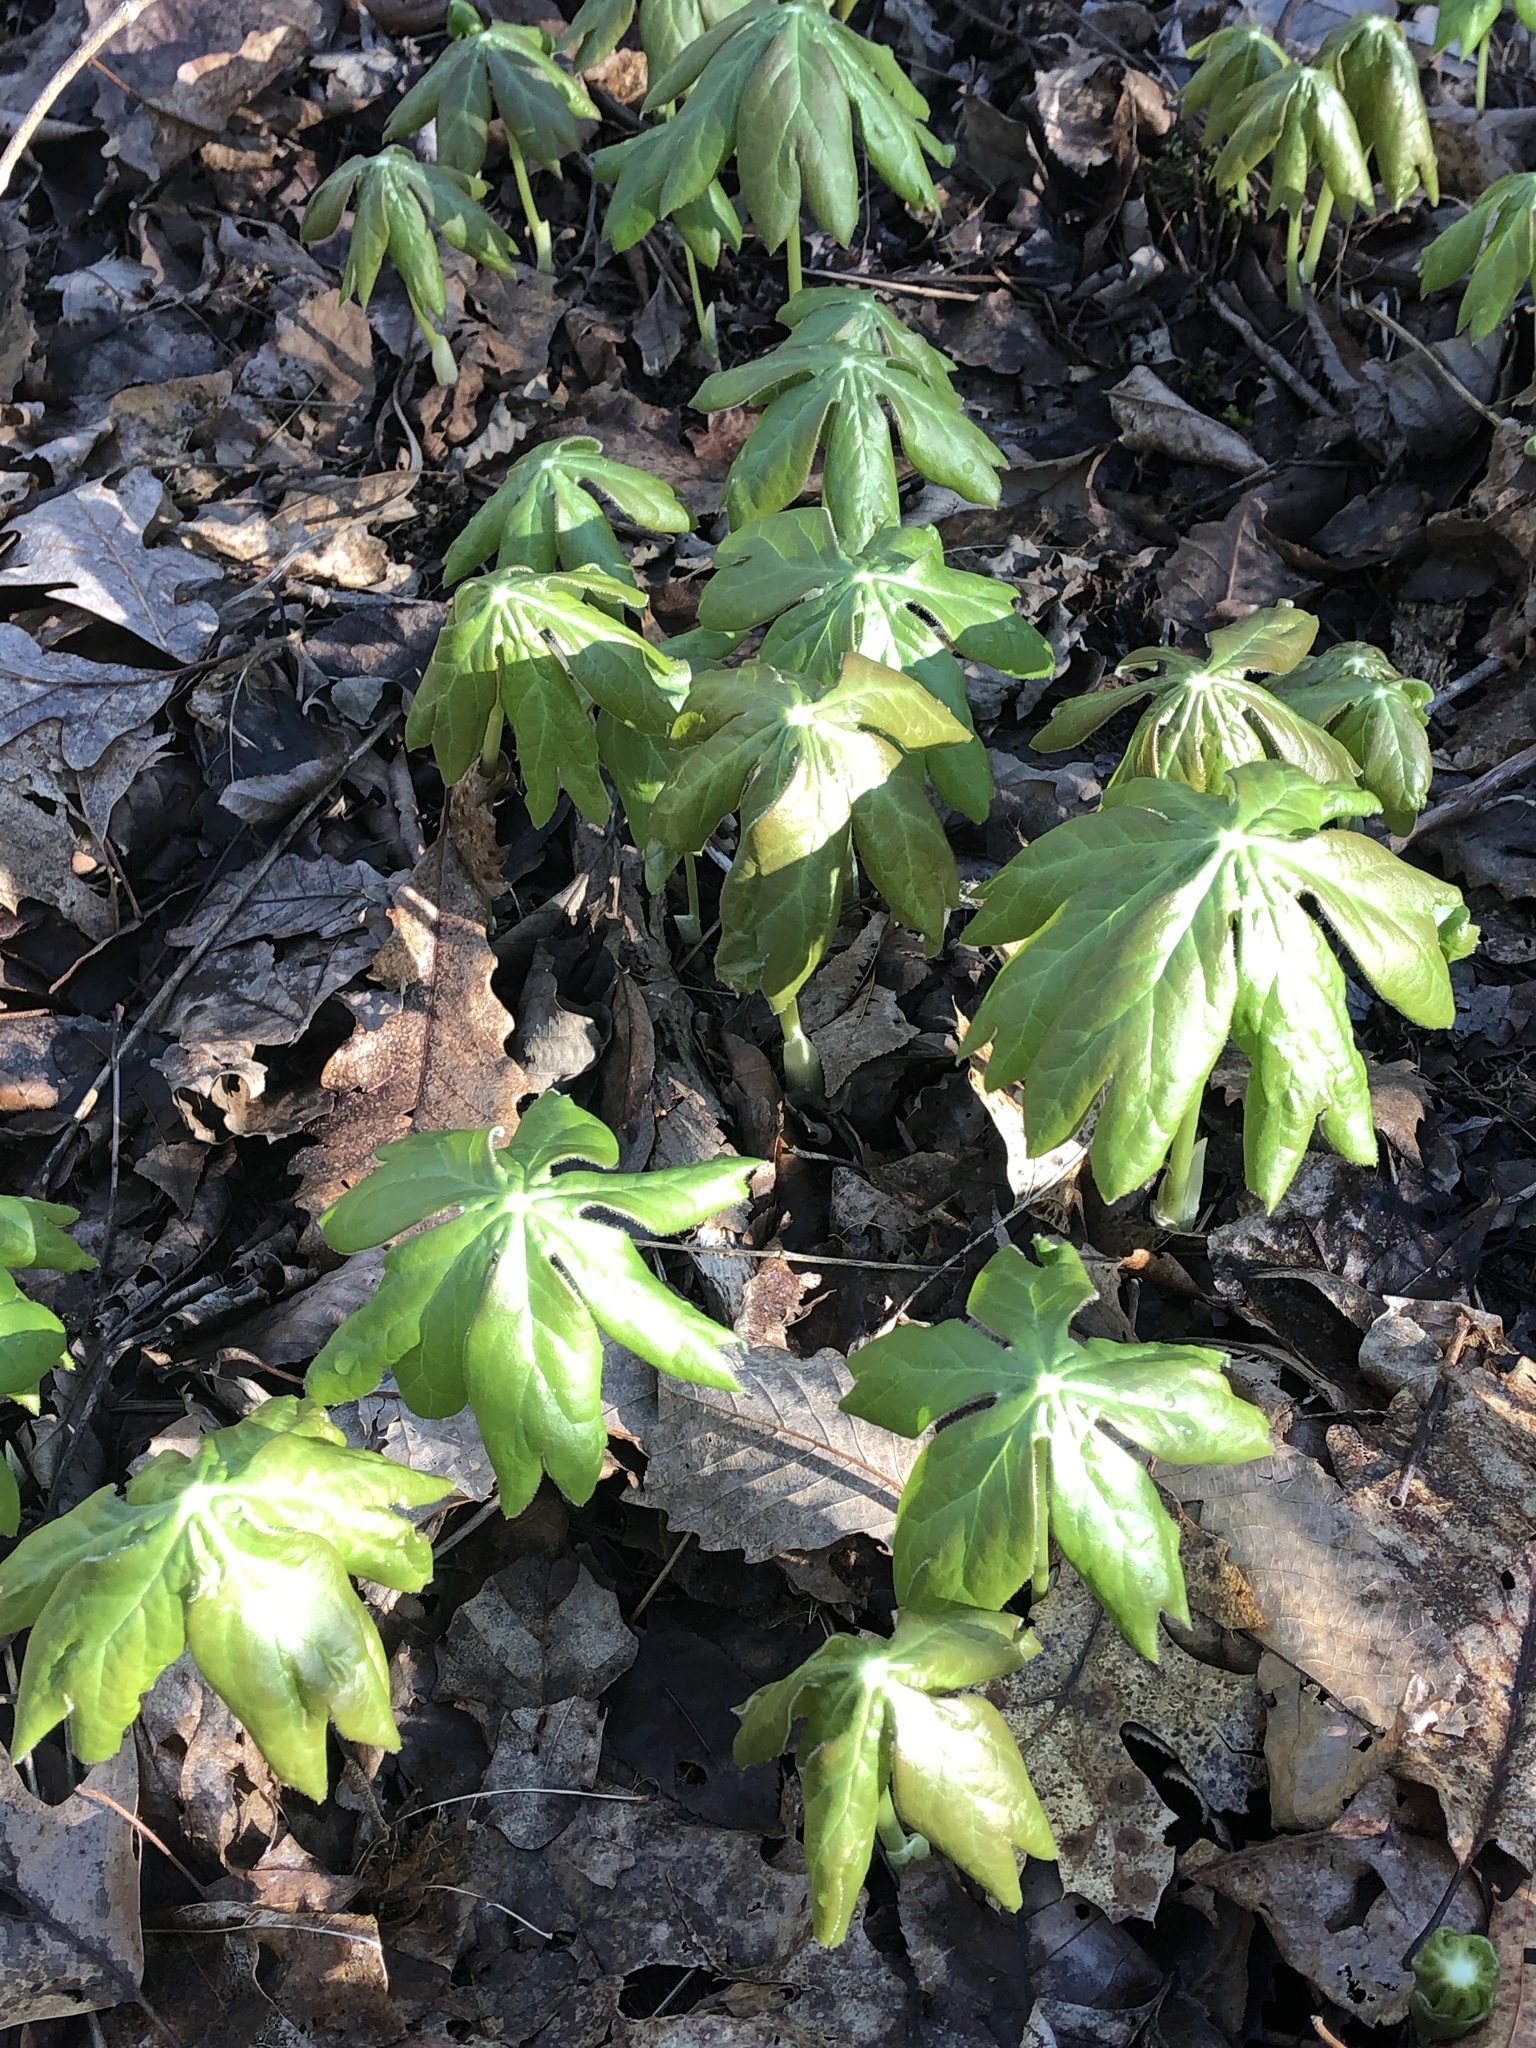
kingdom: Plantae
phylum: Tracheophyta
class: Magnoliopsida
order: Ranunculales
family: Berberidaceae
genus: Podophyllum
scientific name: Podophyllum peltatum
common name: Wild mandrake
